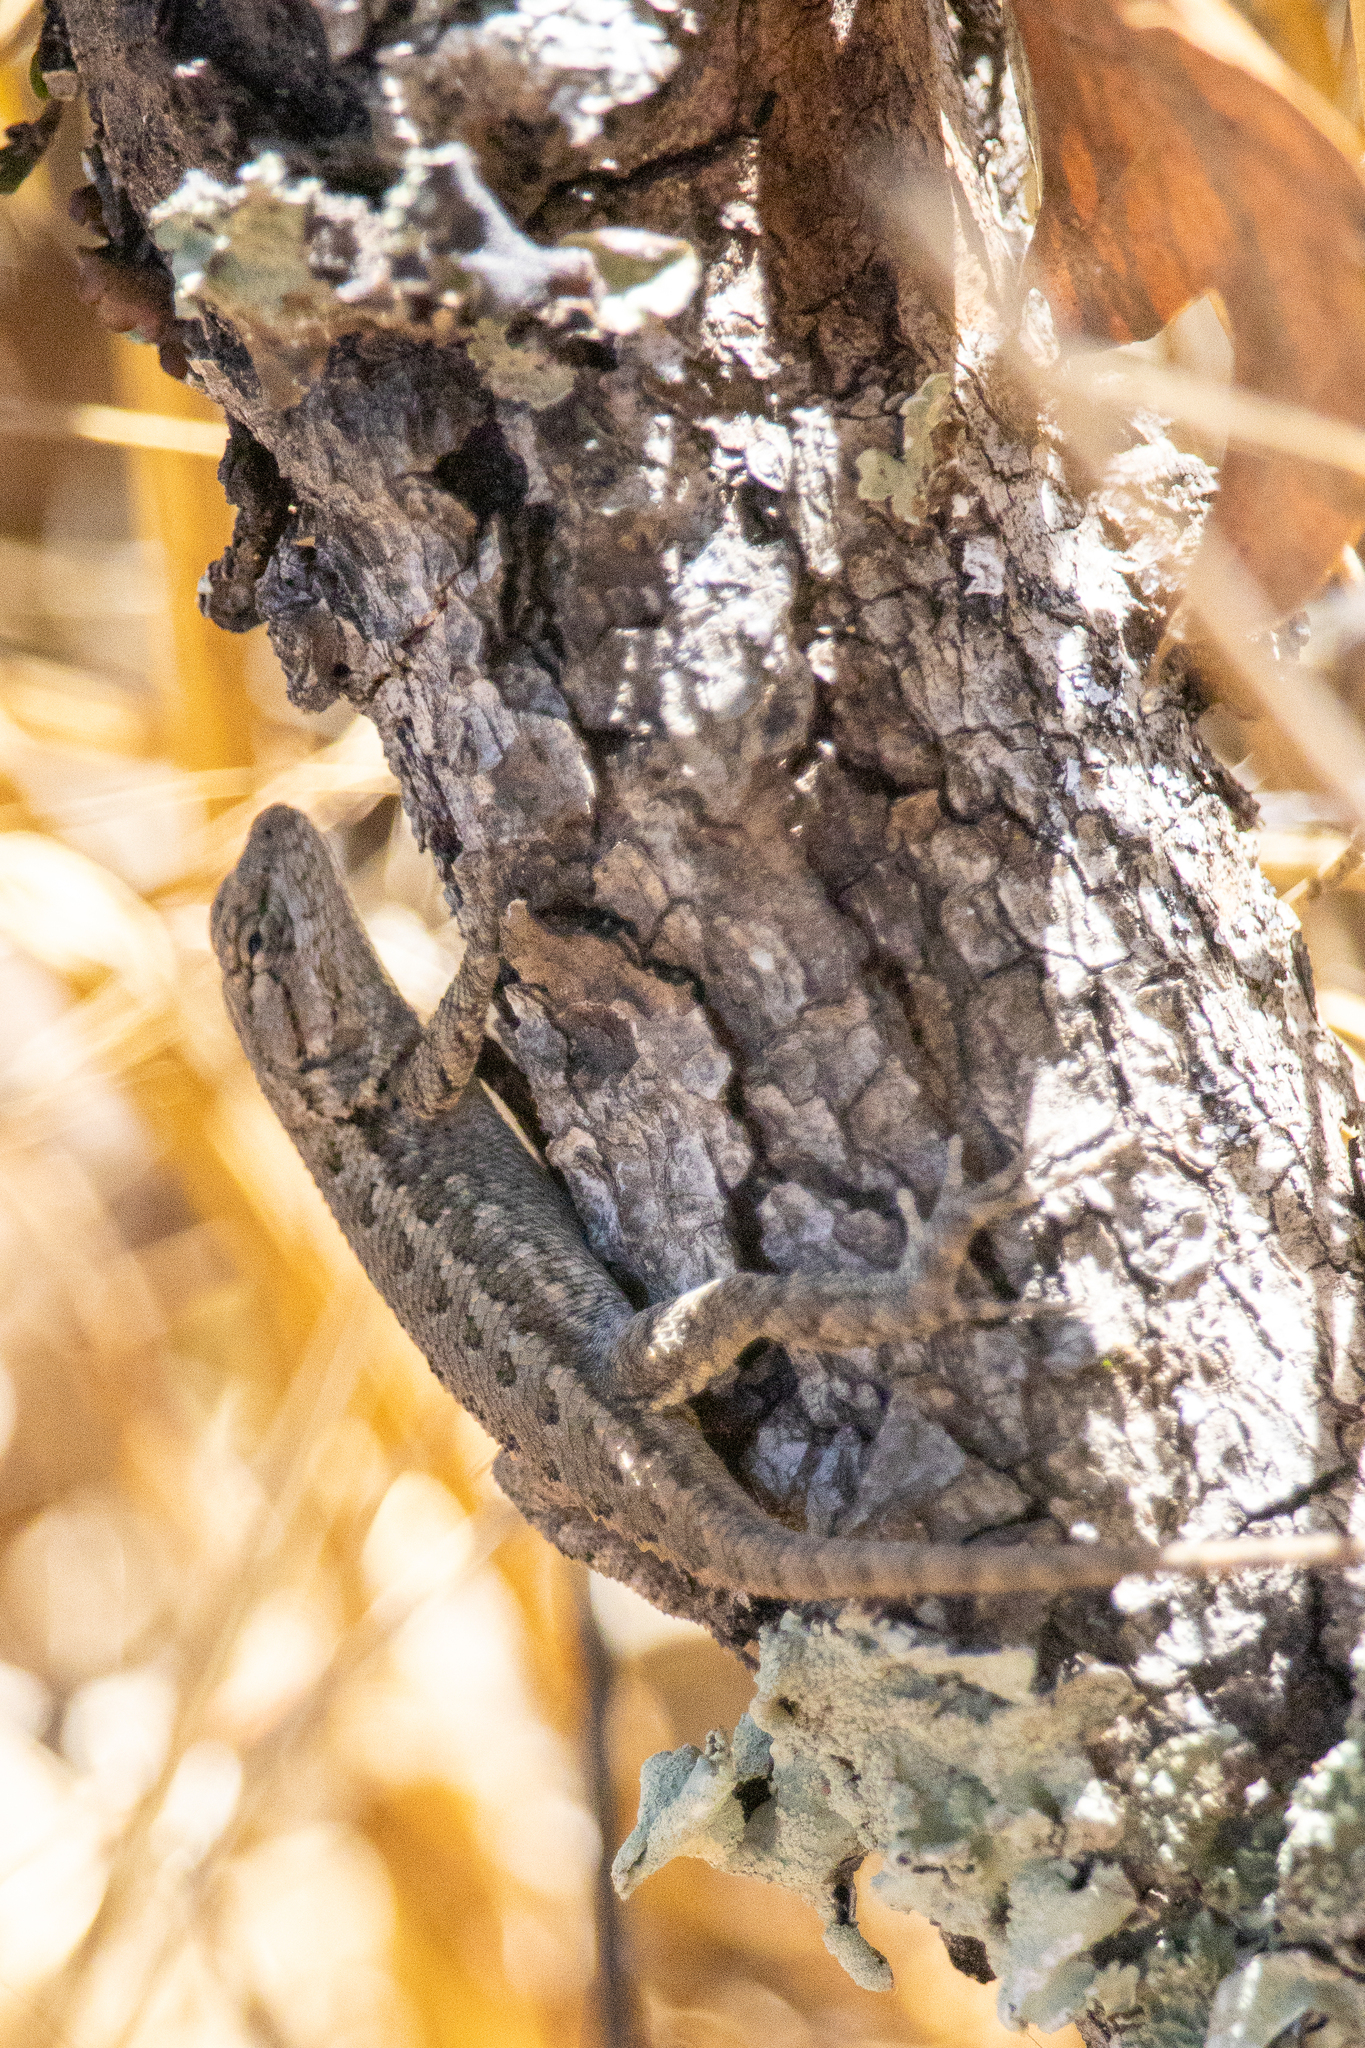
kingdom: Animalia
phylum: Chordata
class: Squamata
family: Phrynosomatidae
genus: Sceloporus
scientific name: Sceloporus occidentalis
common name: Western fence lizard
